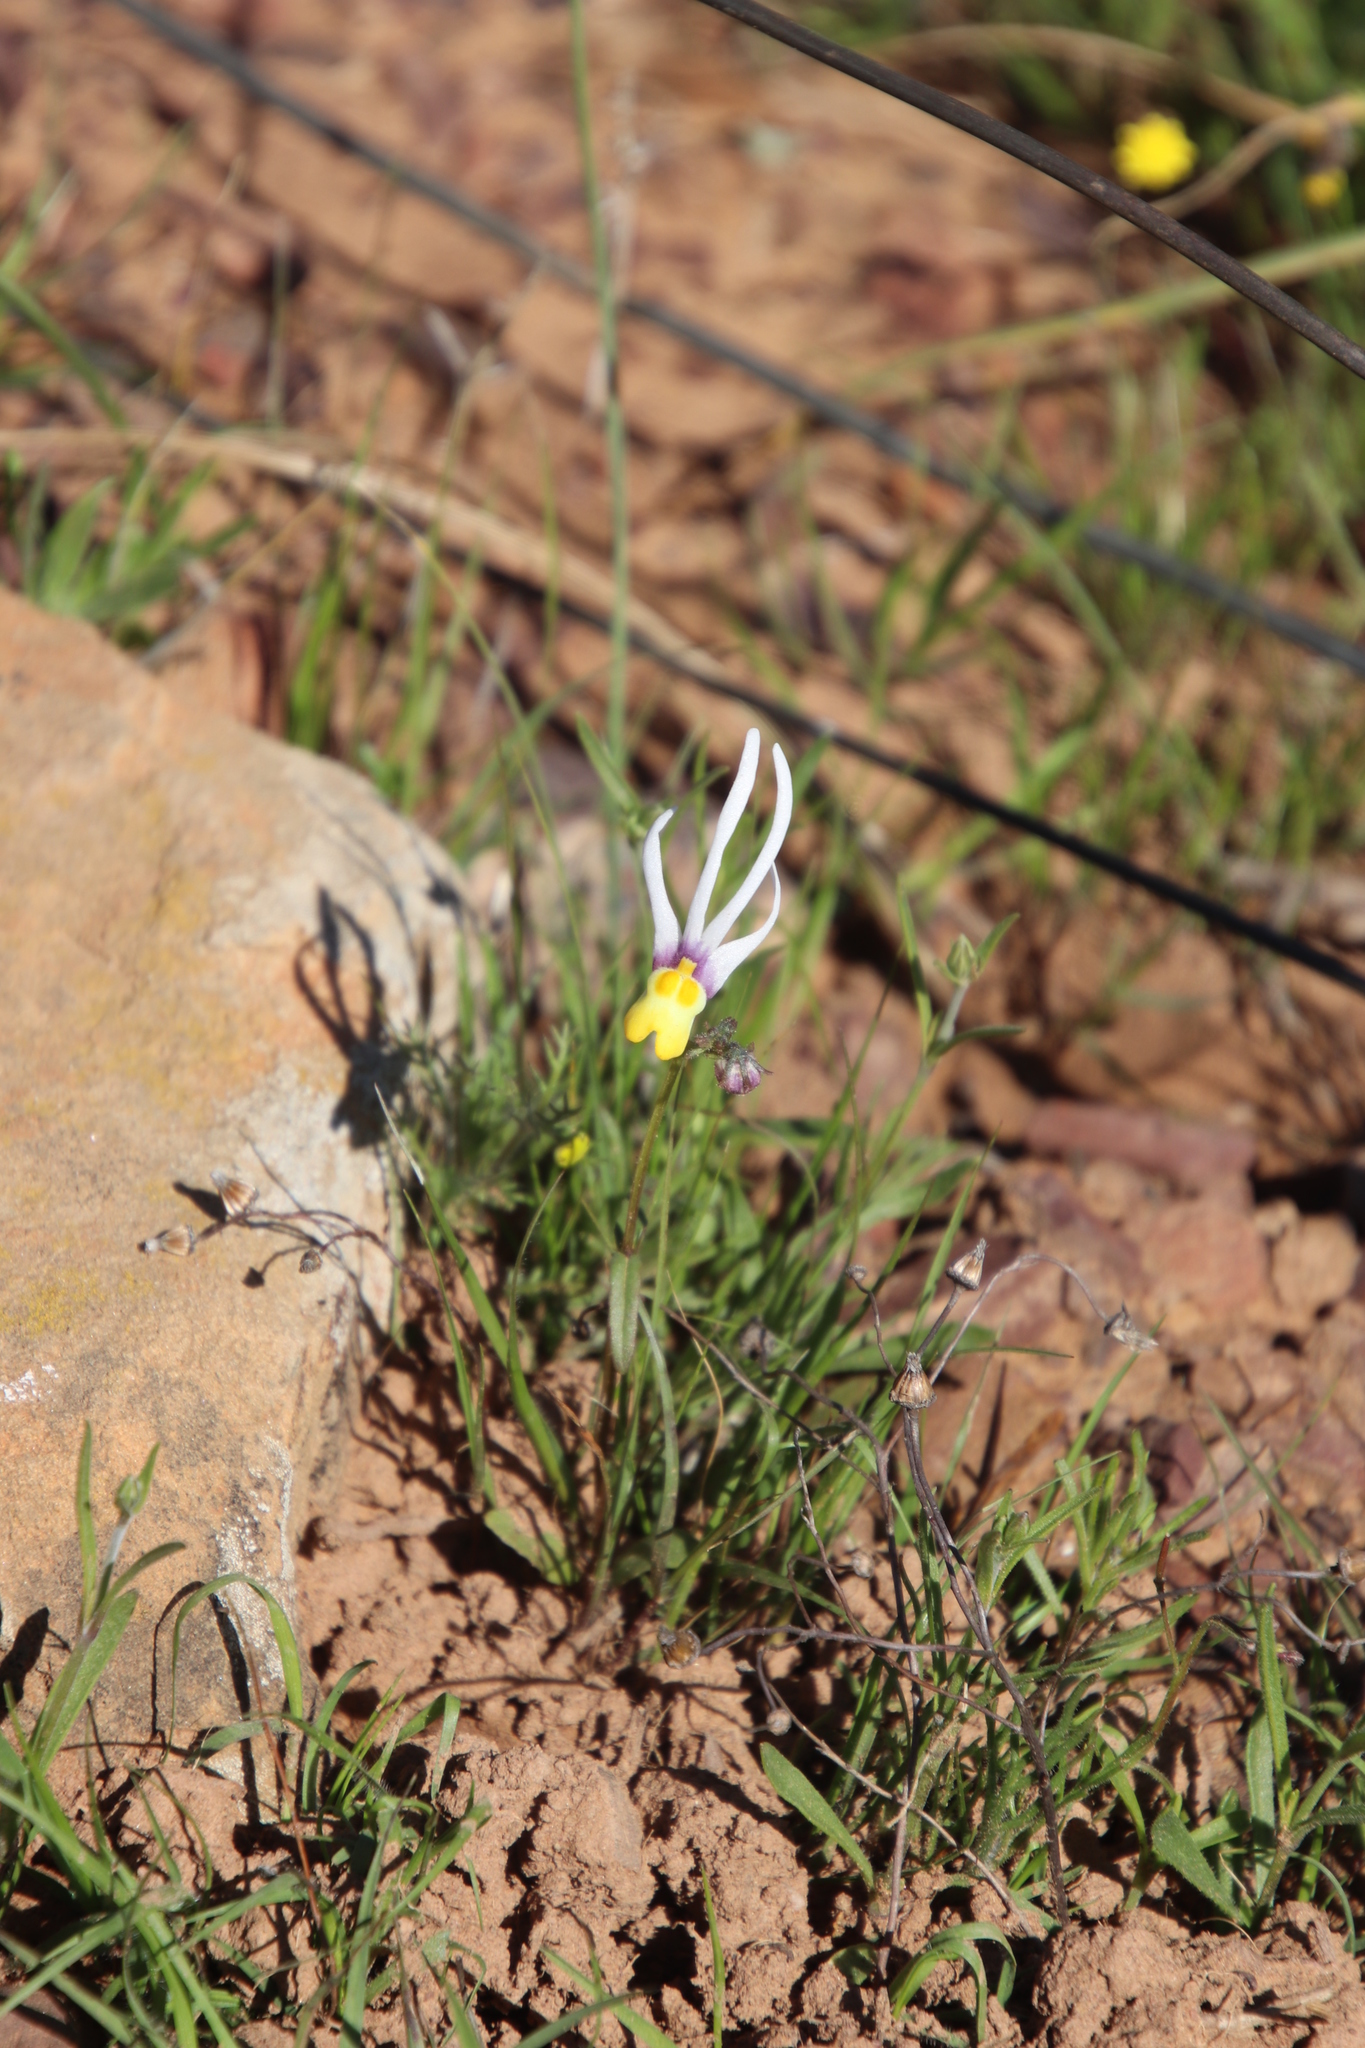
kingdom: Plantae
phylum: Tracheophyta
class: Magnoliopsida
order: Lamiales
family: Scrophulariaceae
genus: Nemesia
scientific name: Nemesia cheiranthus
